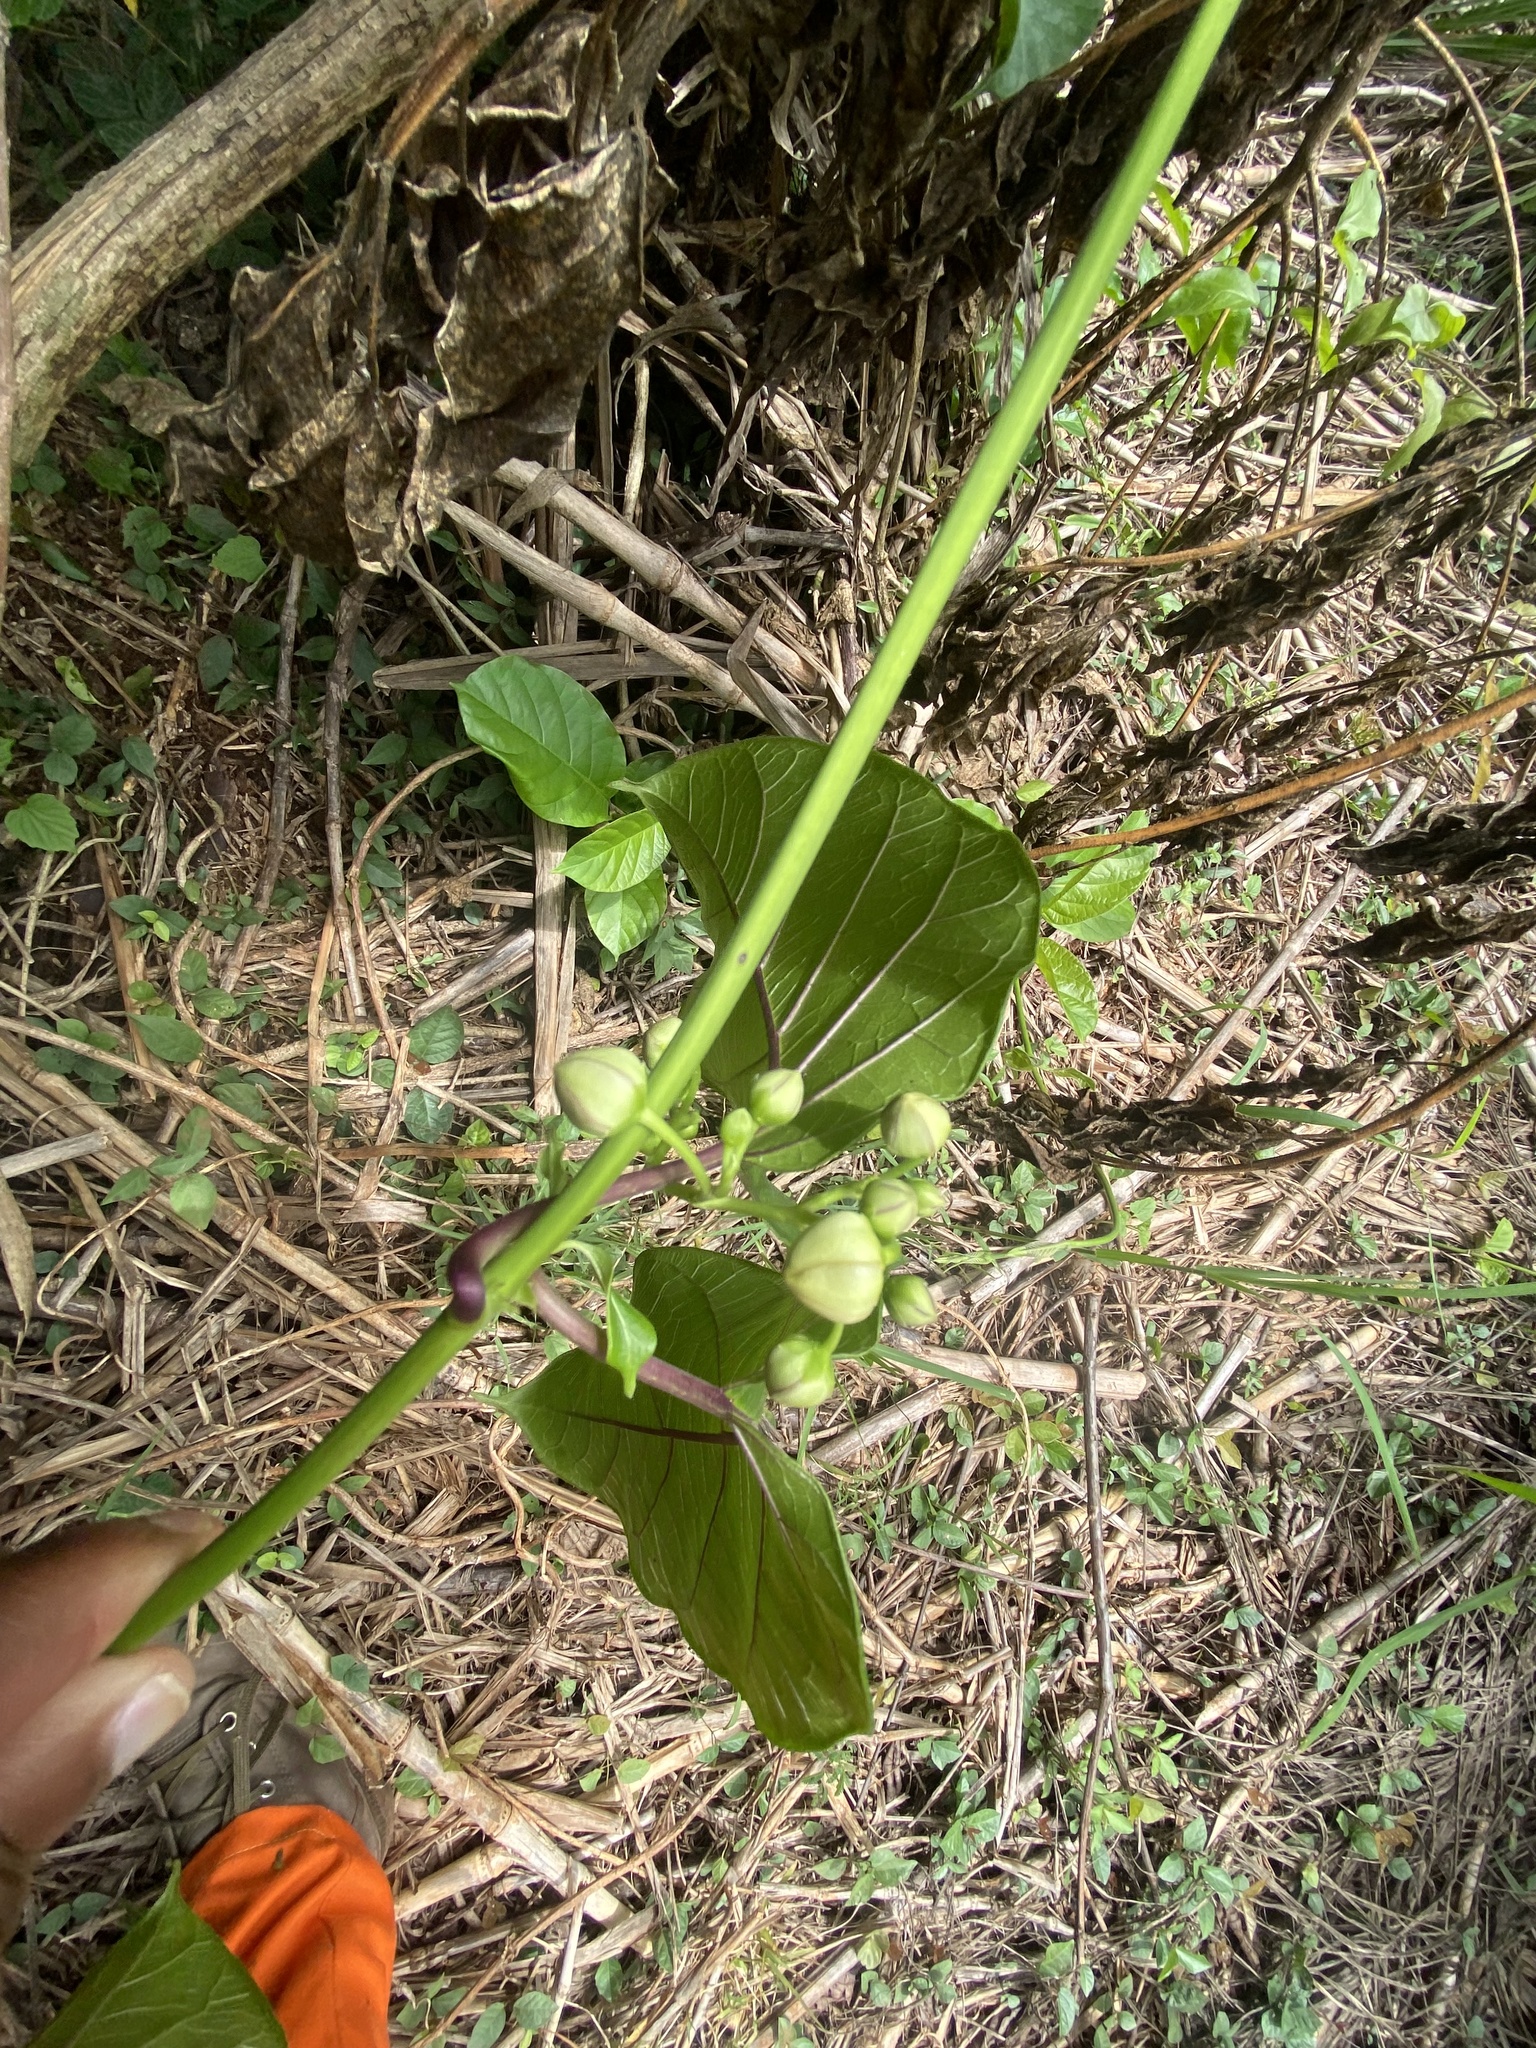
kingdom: Plantae
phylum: Tracheophyta
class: Magnoliopsida
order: Gentianales
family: Apocynaceae
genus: Mondia
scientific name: Mondia whitei
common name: Mondia
